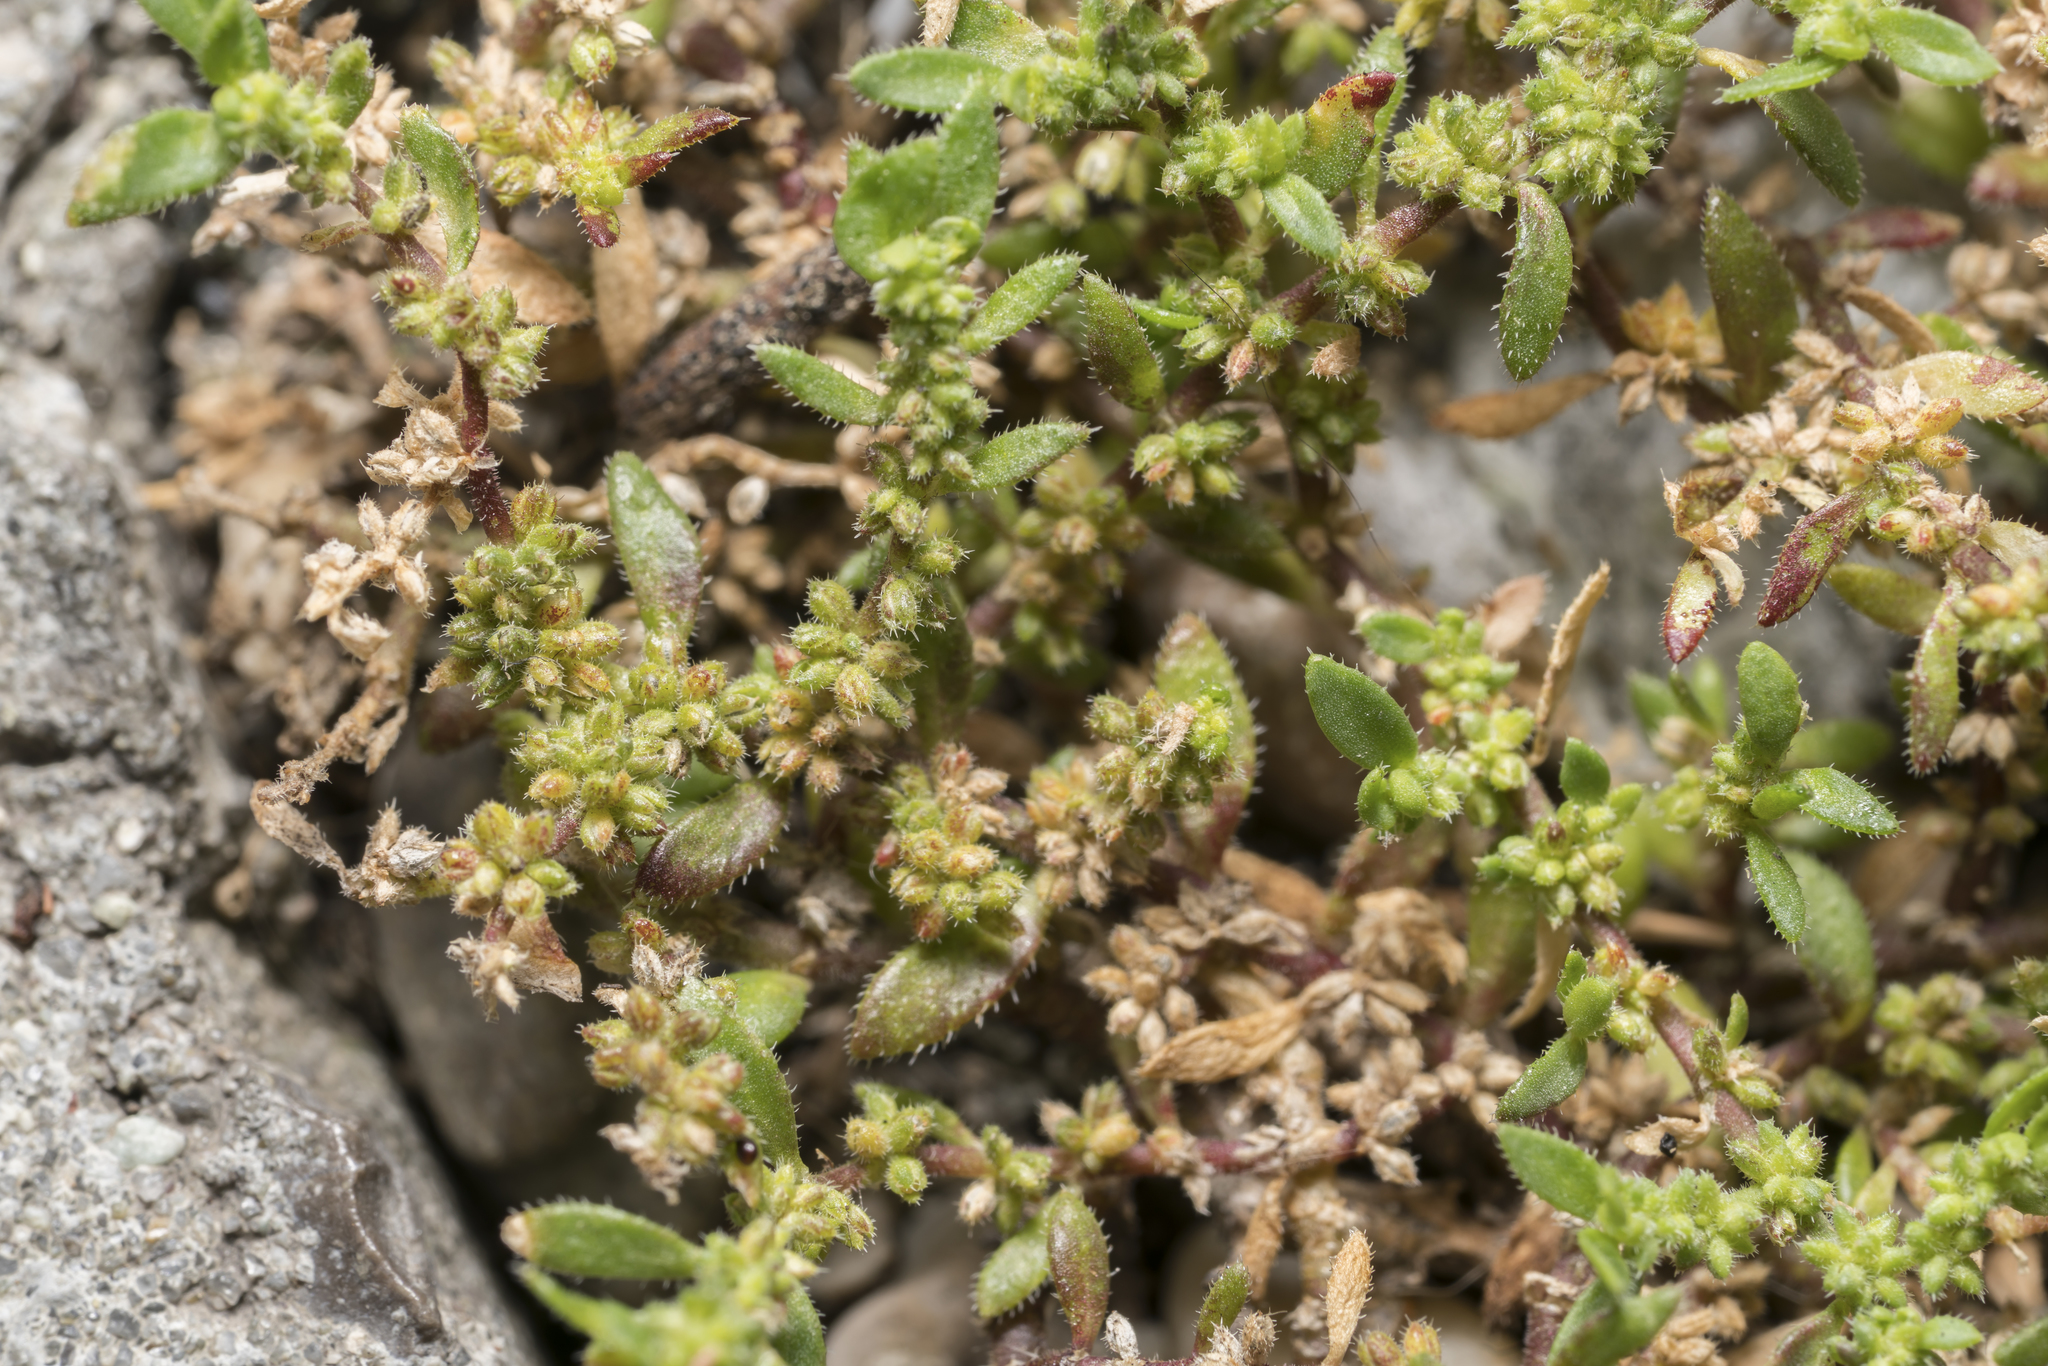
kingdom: Plantae
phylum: Tracheophyta
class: Magnoliopsida
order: Caryophyllales
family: Caryophyllaceae
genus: Herniaria
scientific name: Herniaria hirsuta
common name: Hairy rupturewort
